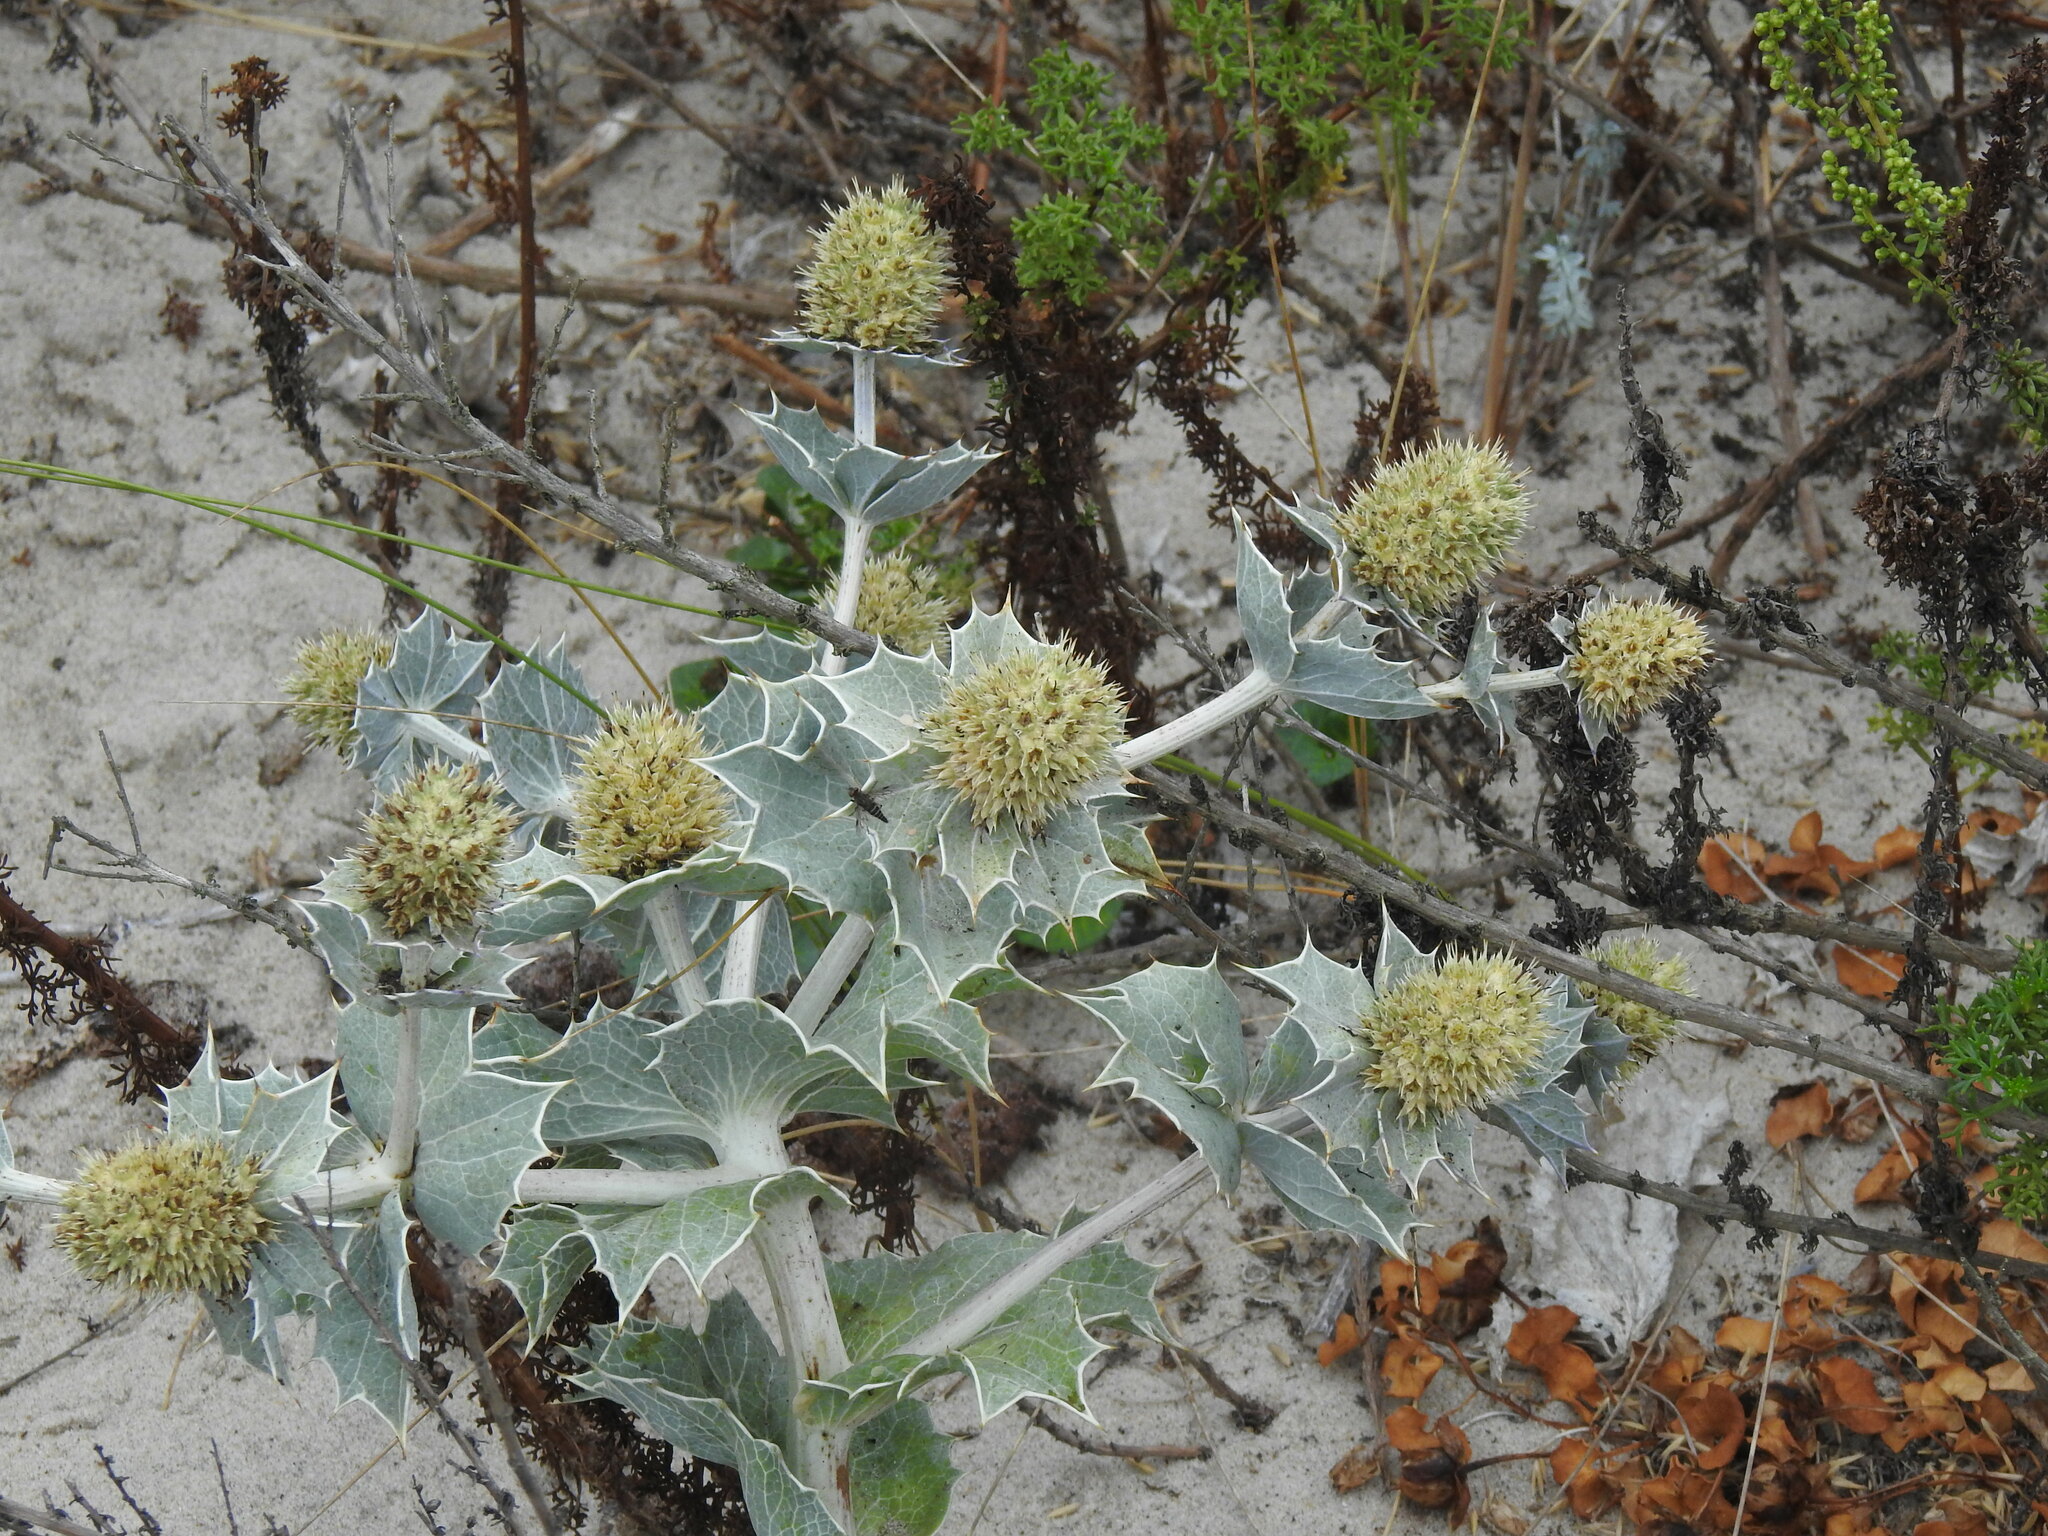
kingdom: Plantae
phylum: Tracheophyta
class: Magnoliopsida
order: Apiales
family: Apiaceae
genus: Eryngium
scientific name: Eryngium maritimum
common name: Sea-holly
